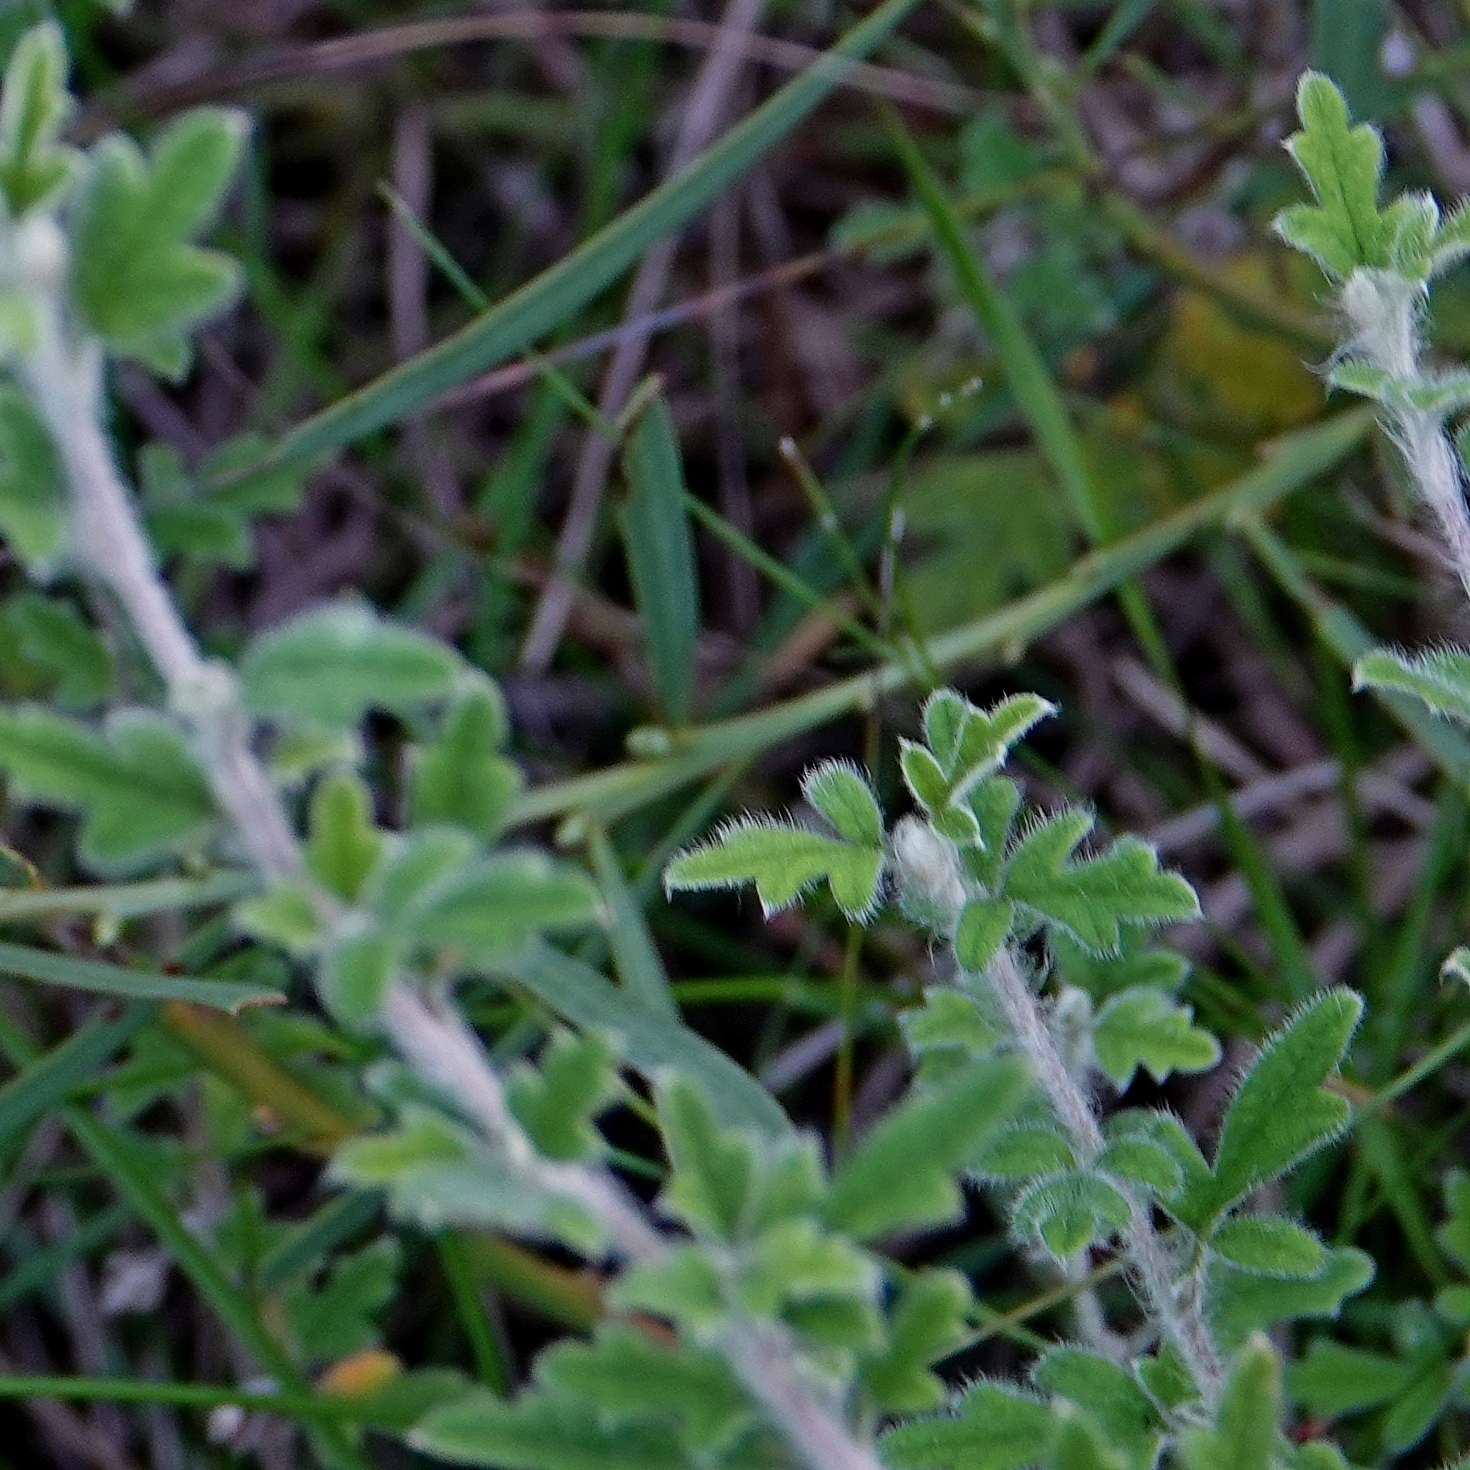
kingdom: Plantae
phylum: Tracheophyta
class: Magnoliopsida
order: Apiales
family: Apiaceae
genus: Xanthosia
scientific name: Xanthosia pilosa
